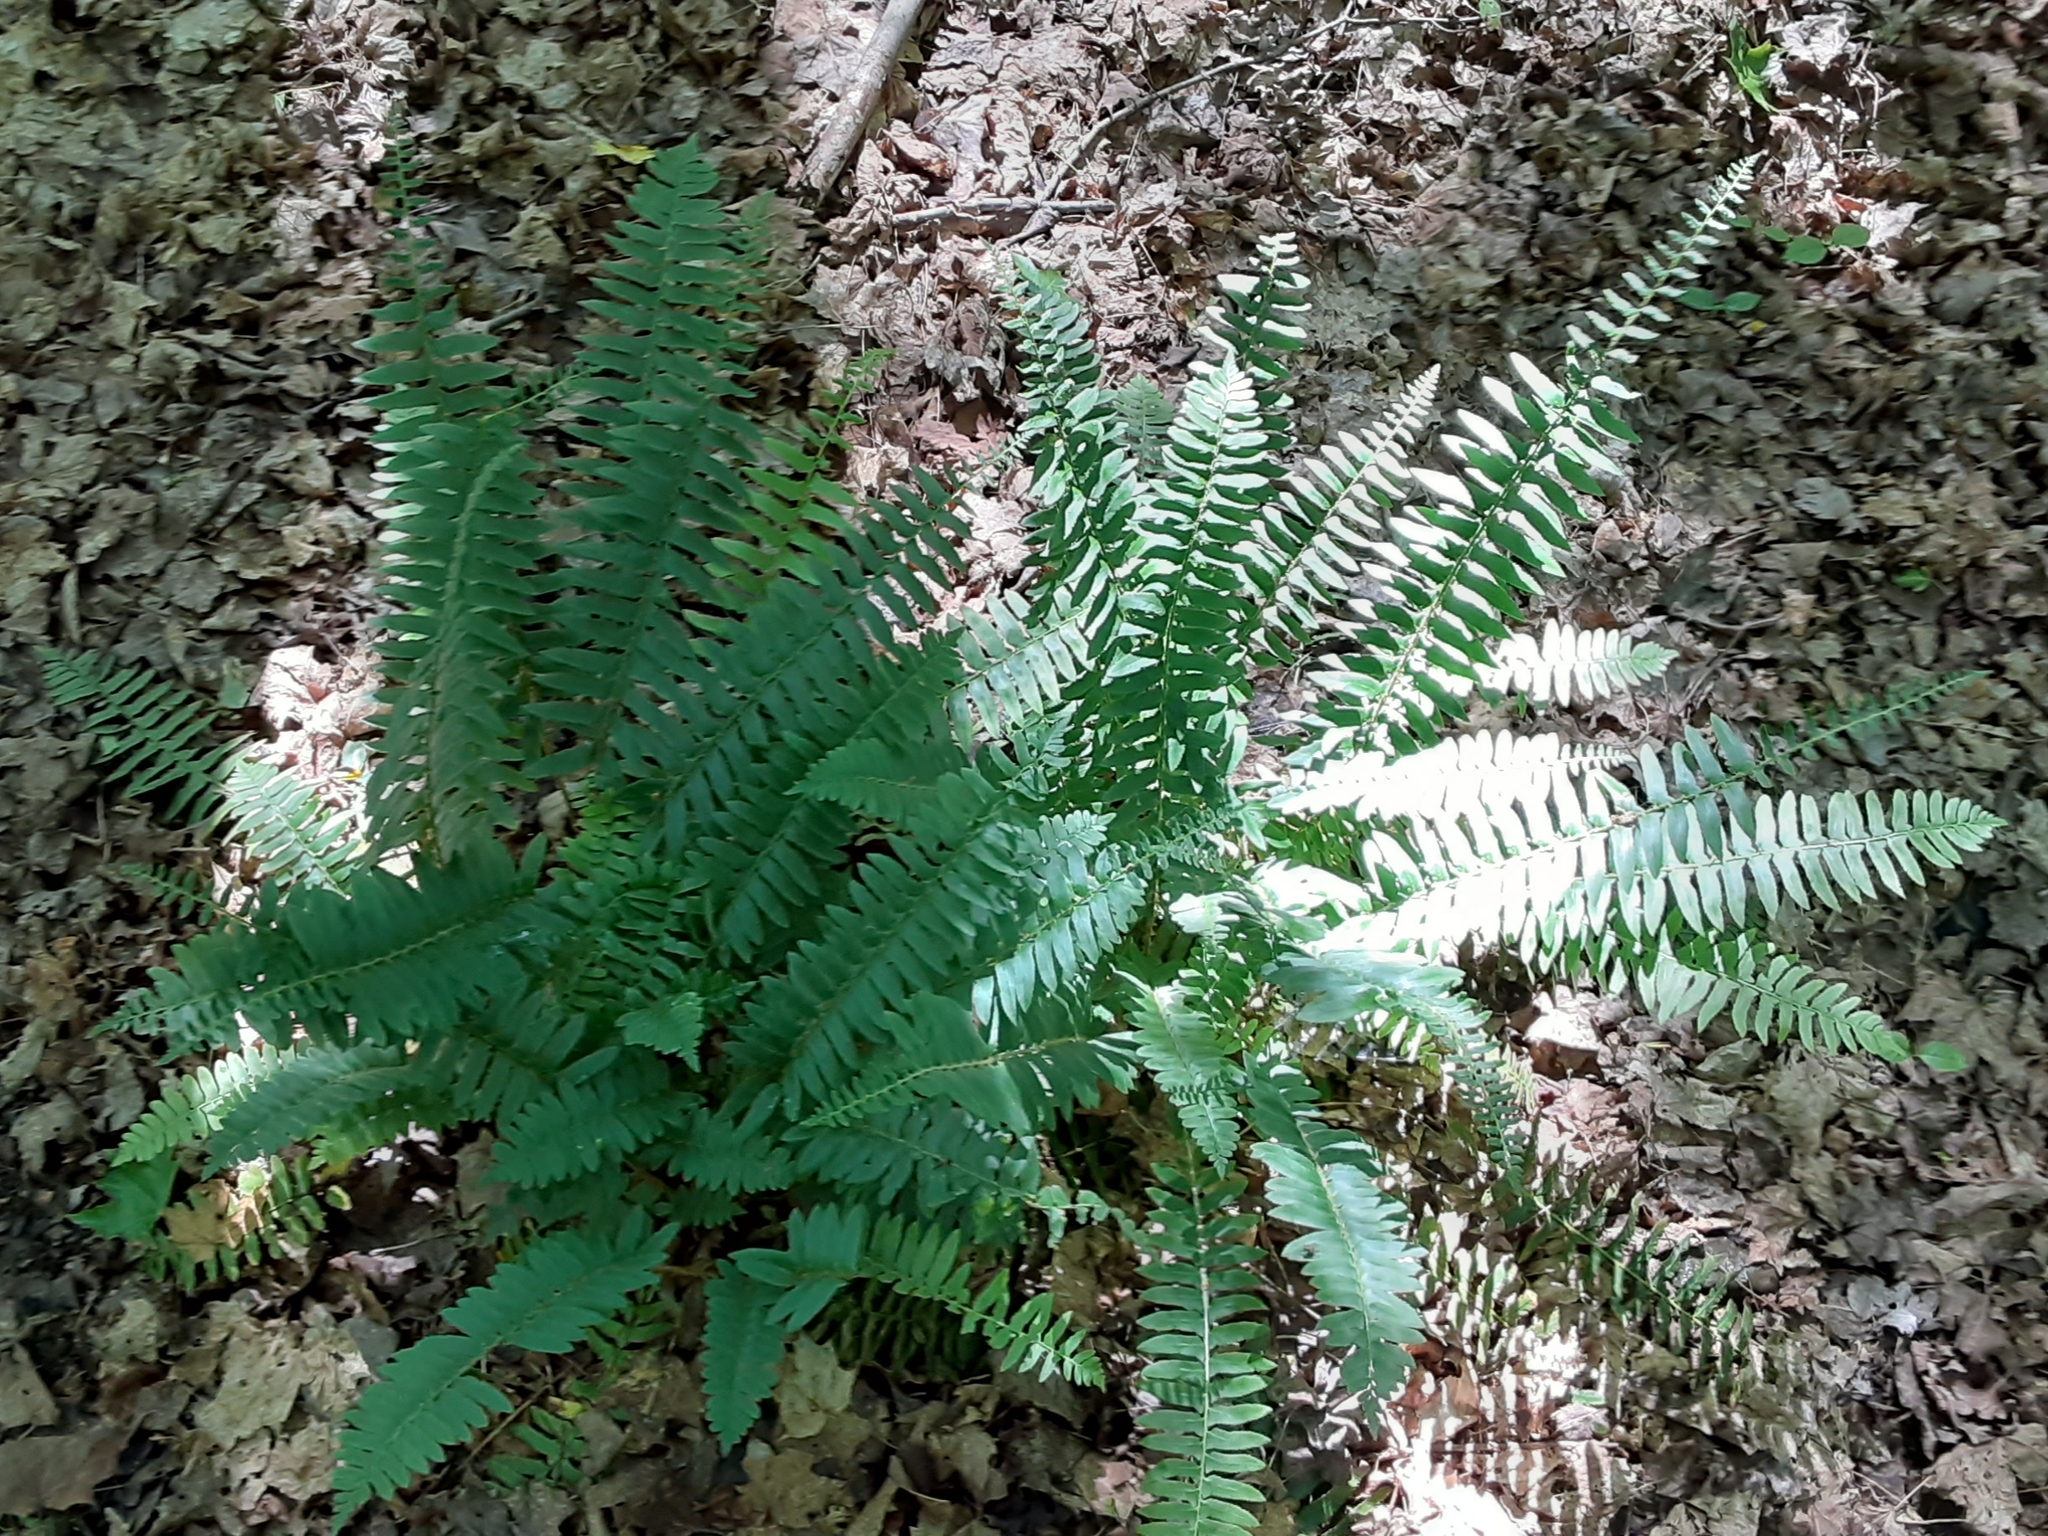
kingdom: Plantae
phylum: Tracheophyta
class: Polypodiopsida
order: Polypodiales
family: Dryopteridaceae
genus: Polystichum
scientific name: Polystichum acrostichoides
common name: Christmas fern
